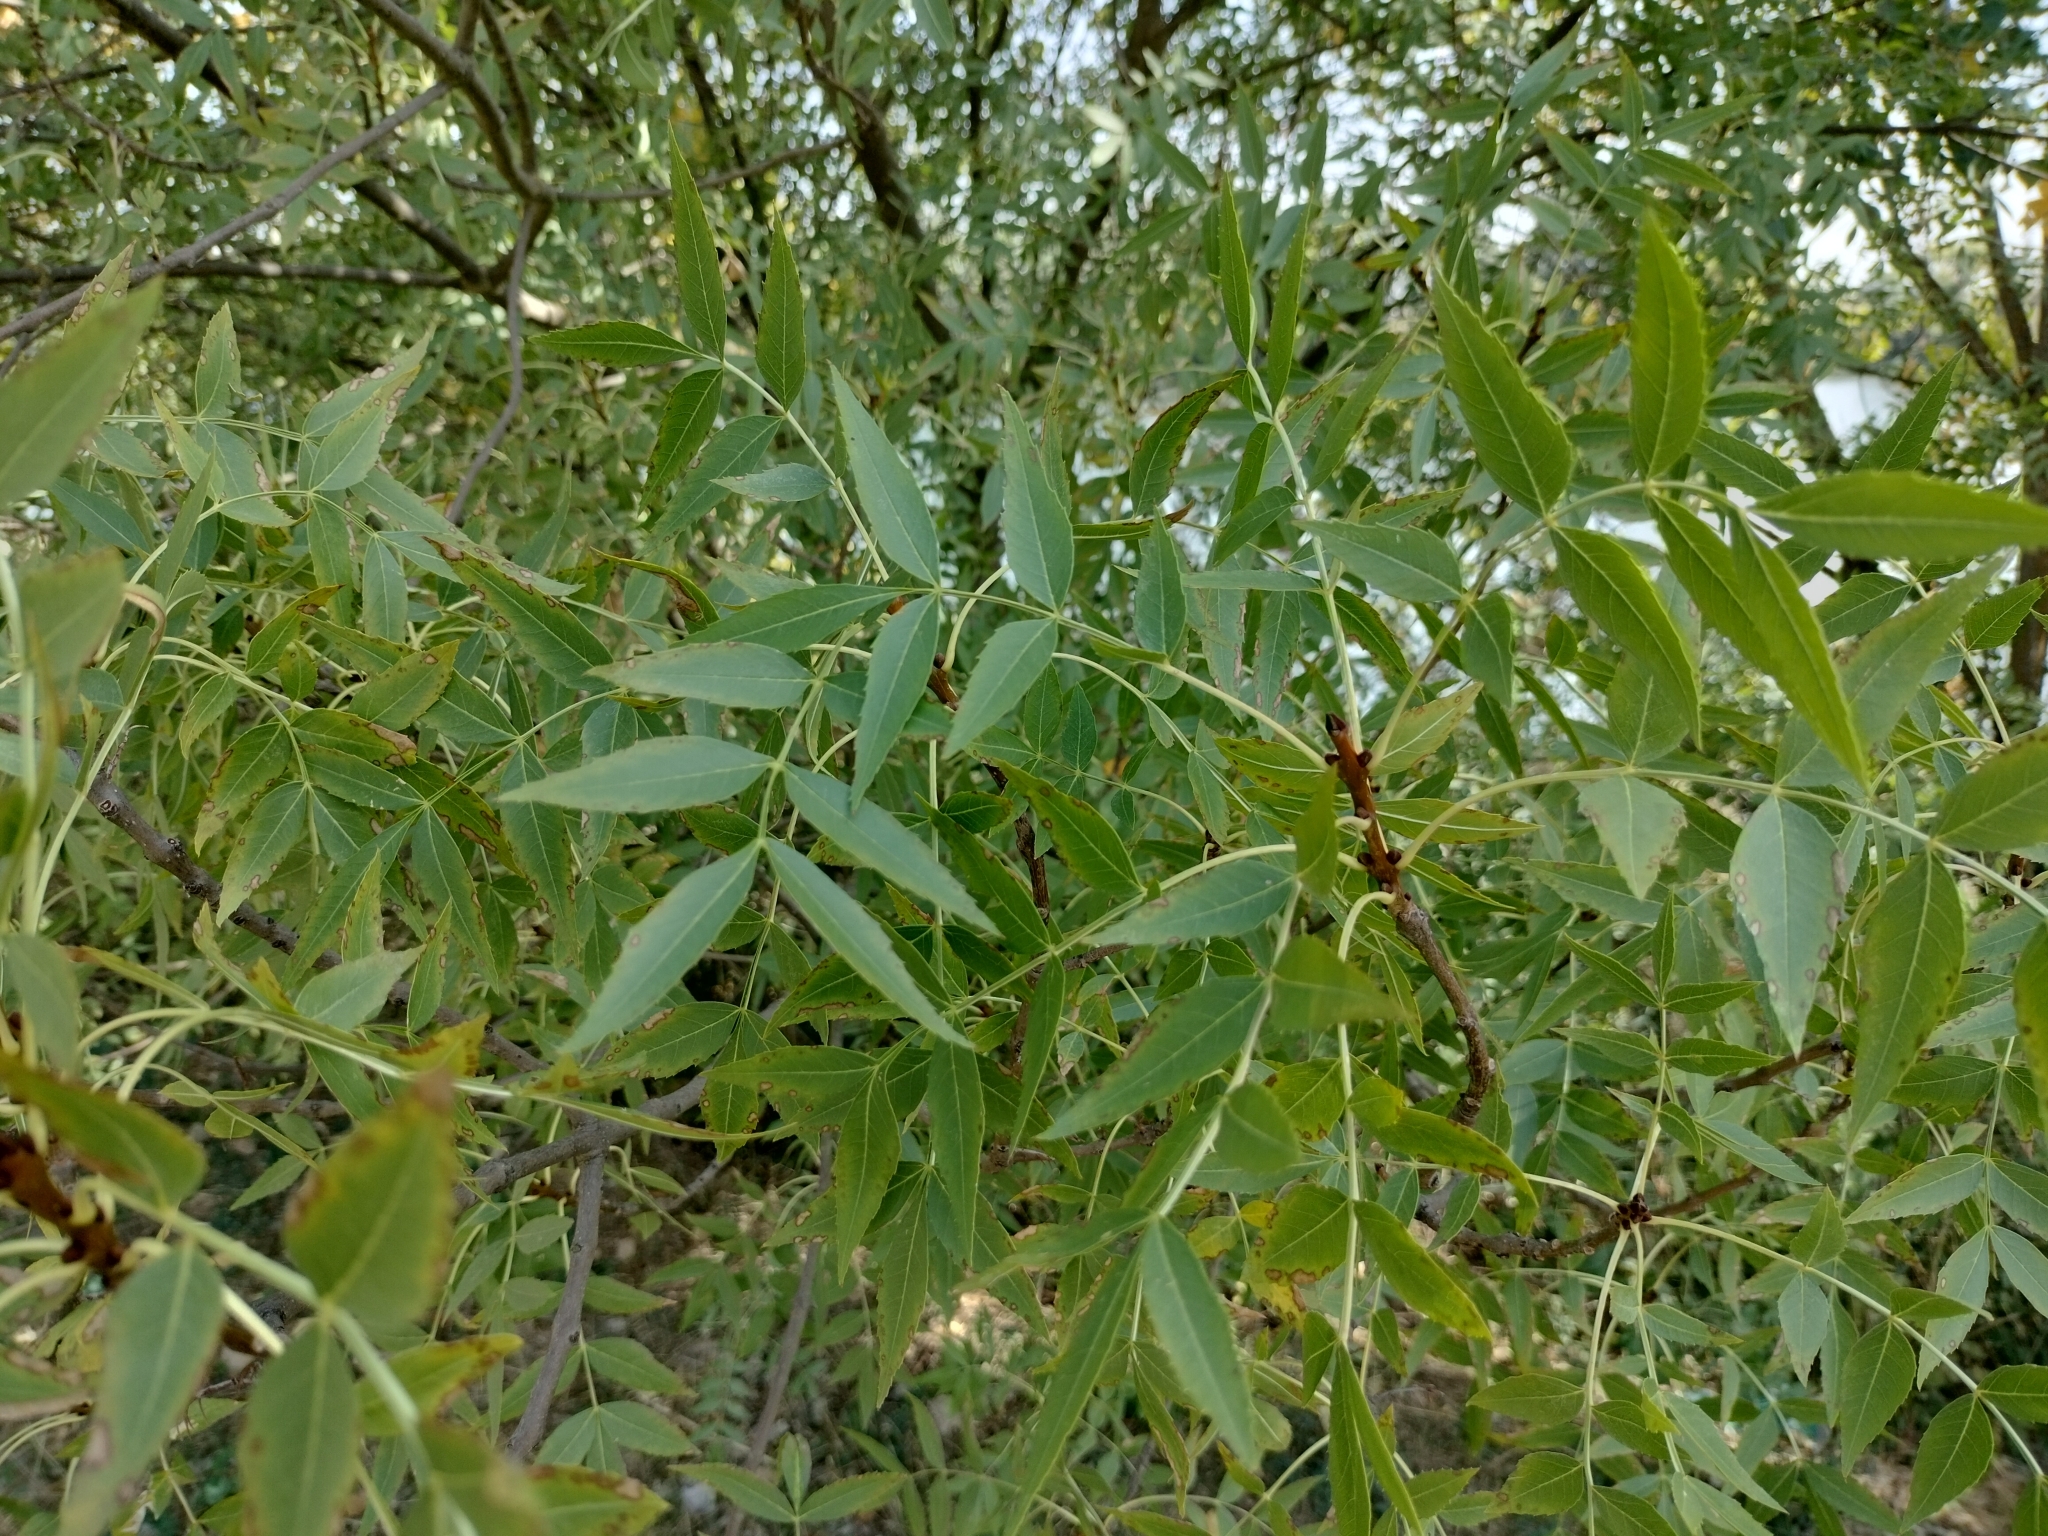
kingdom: Plantae
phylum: Tracheophyta
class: Magnoliopsida
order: Lamiales
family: Oleaceae
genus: Fraxinus
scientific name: Fraxinus angustifolia
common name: Narrow-leafed ash
